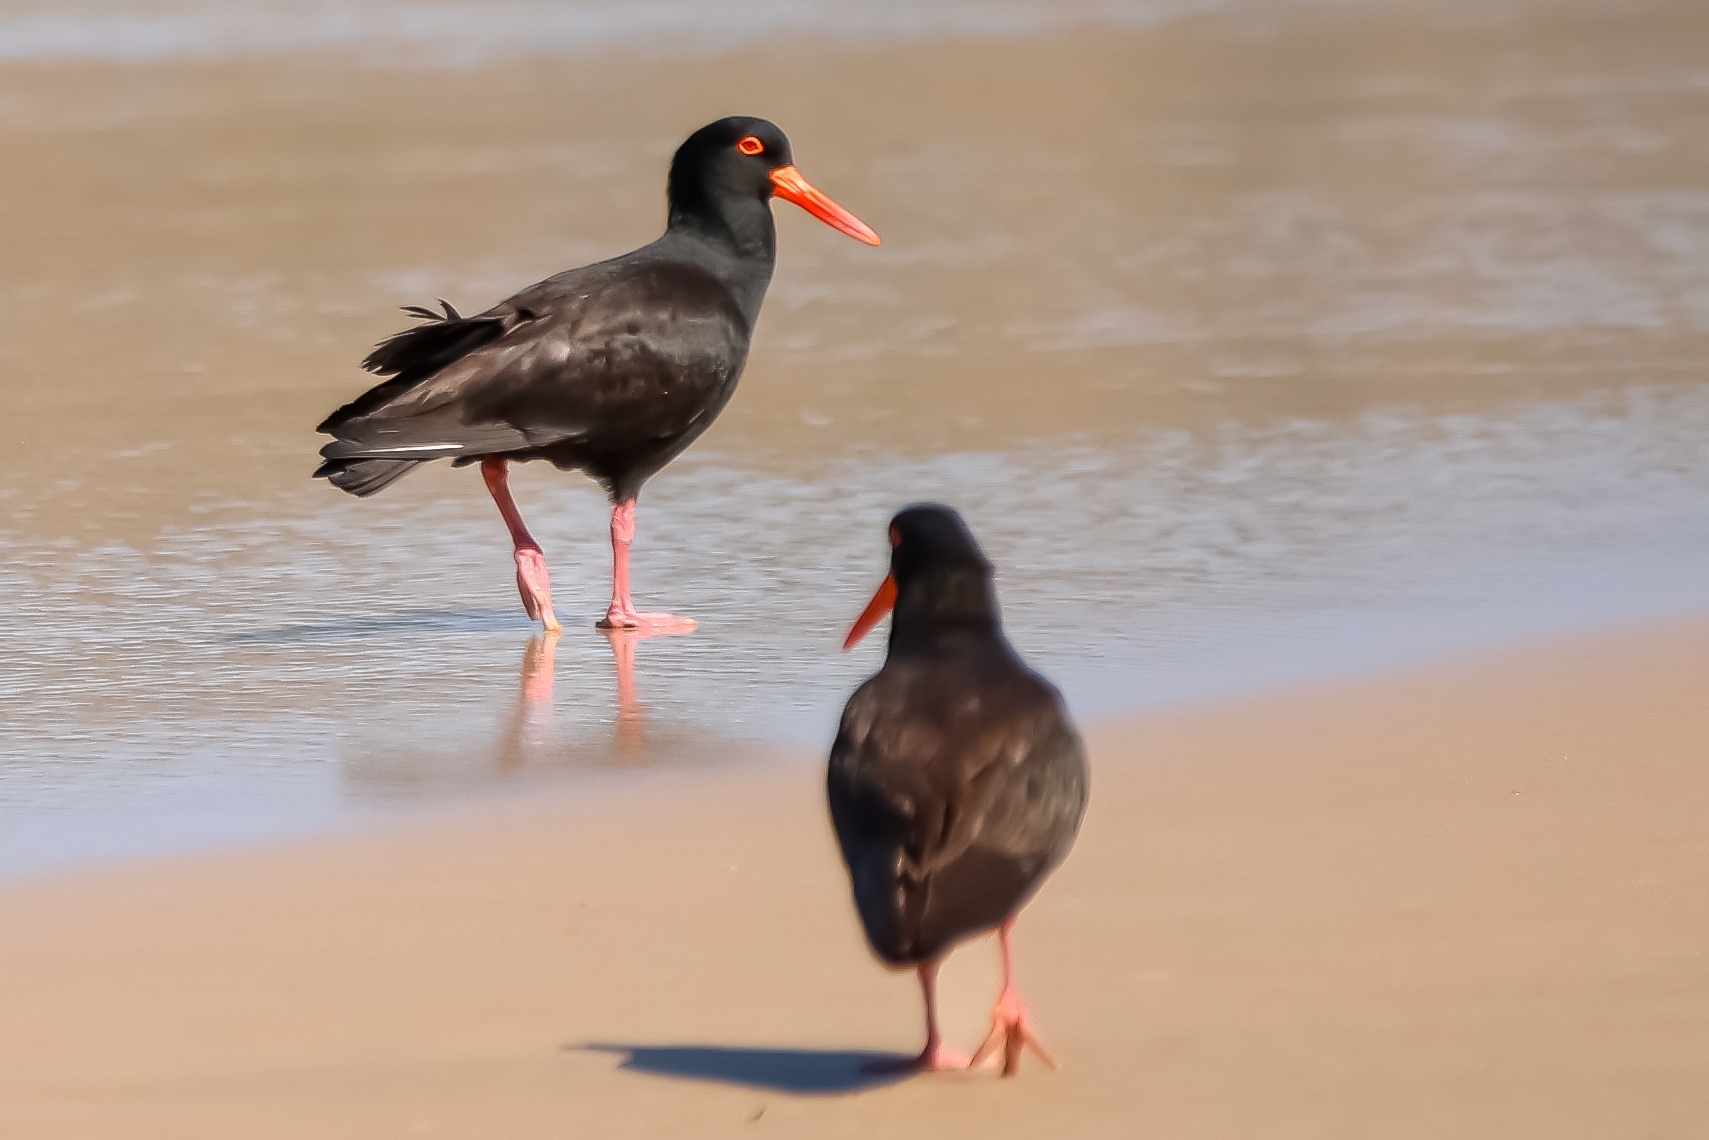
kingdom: Animalia
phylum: Chordata
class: Aves
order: Charadriiformes
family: Haematopodidae
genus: Haematopus
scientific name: Haematopus fuliginosus
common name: Sooty oystercatcher
